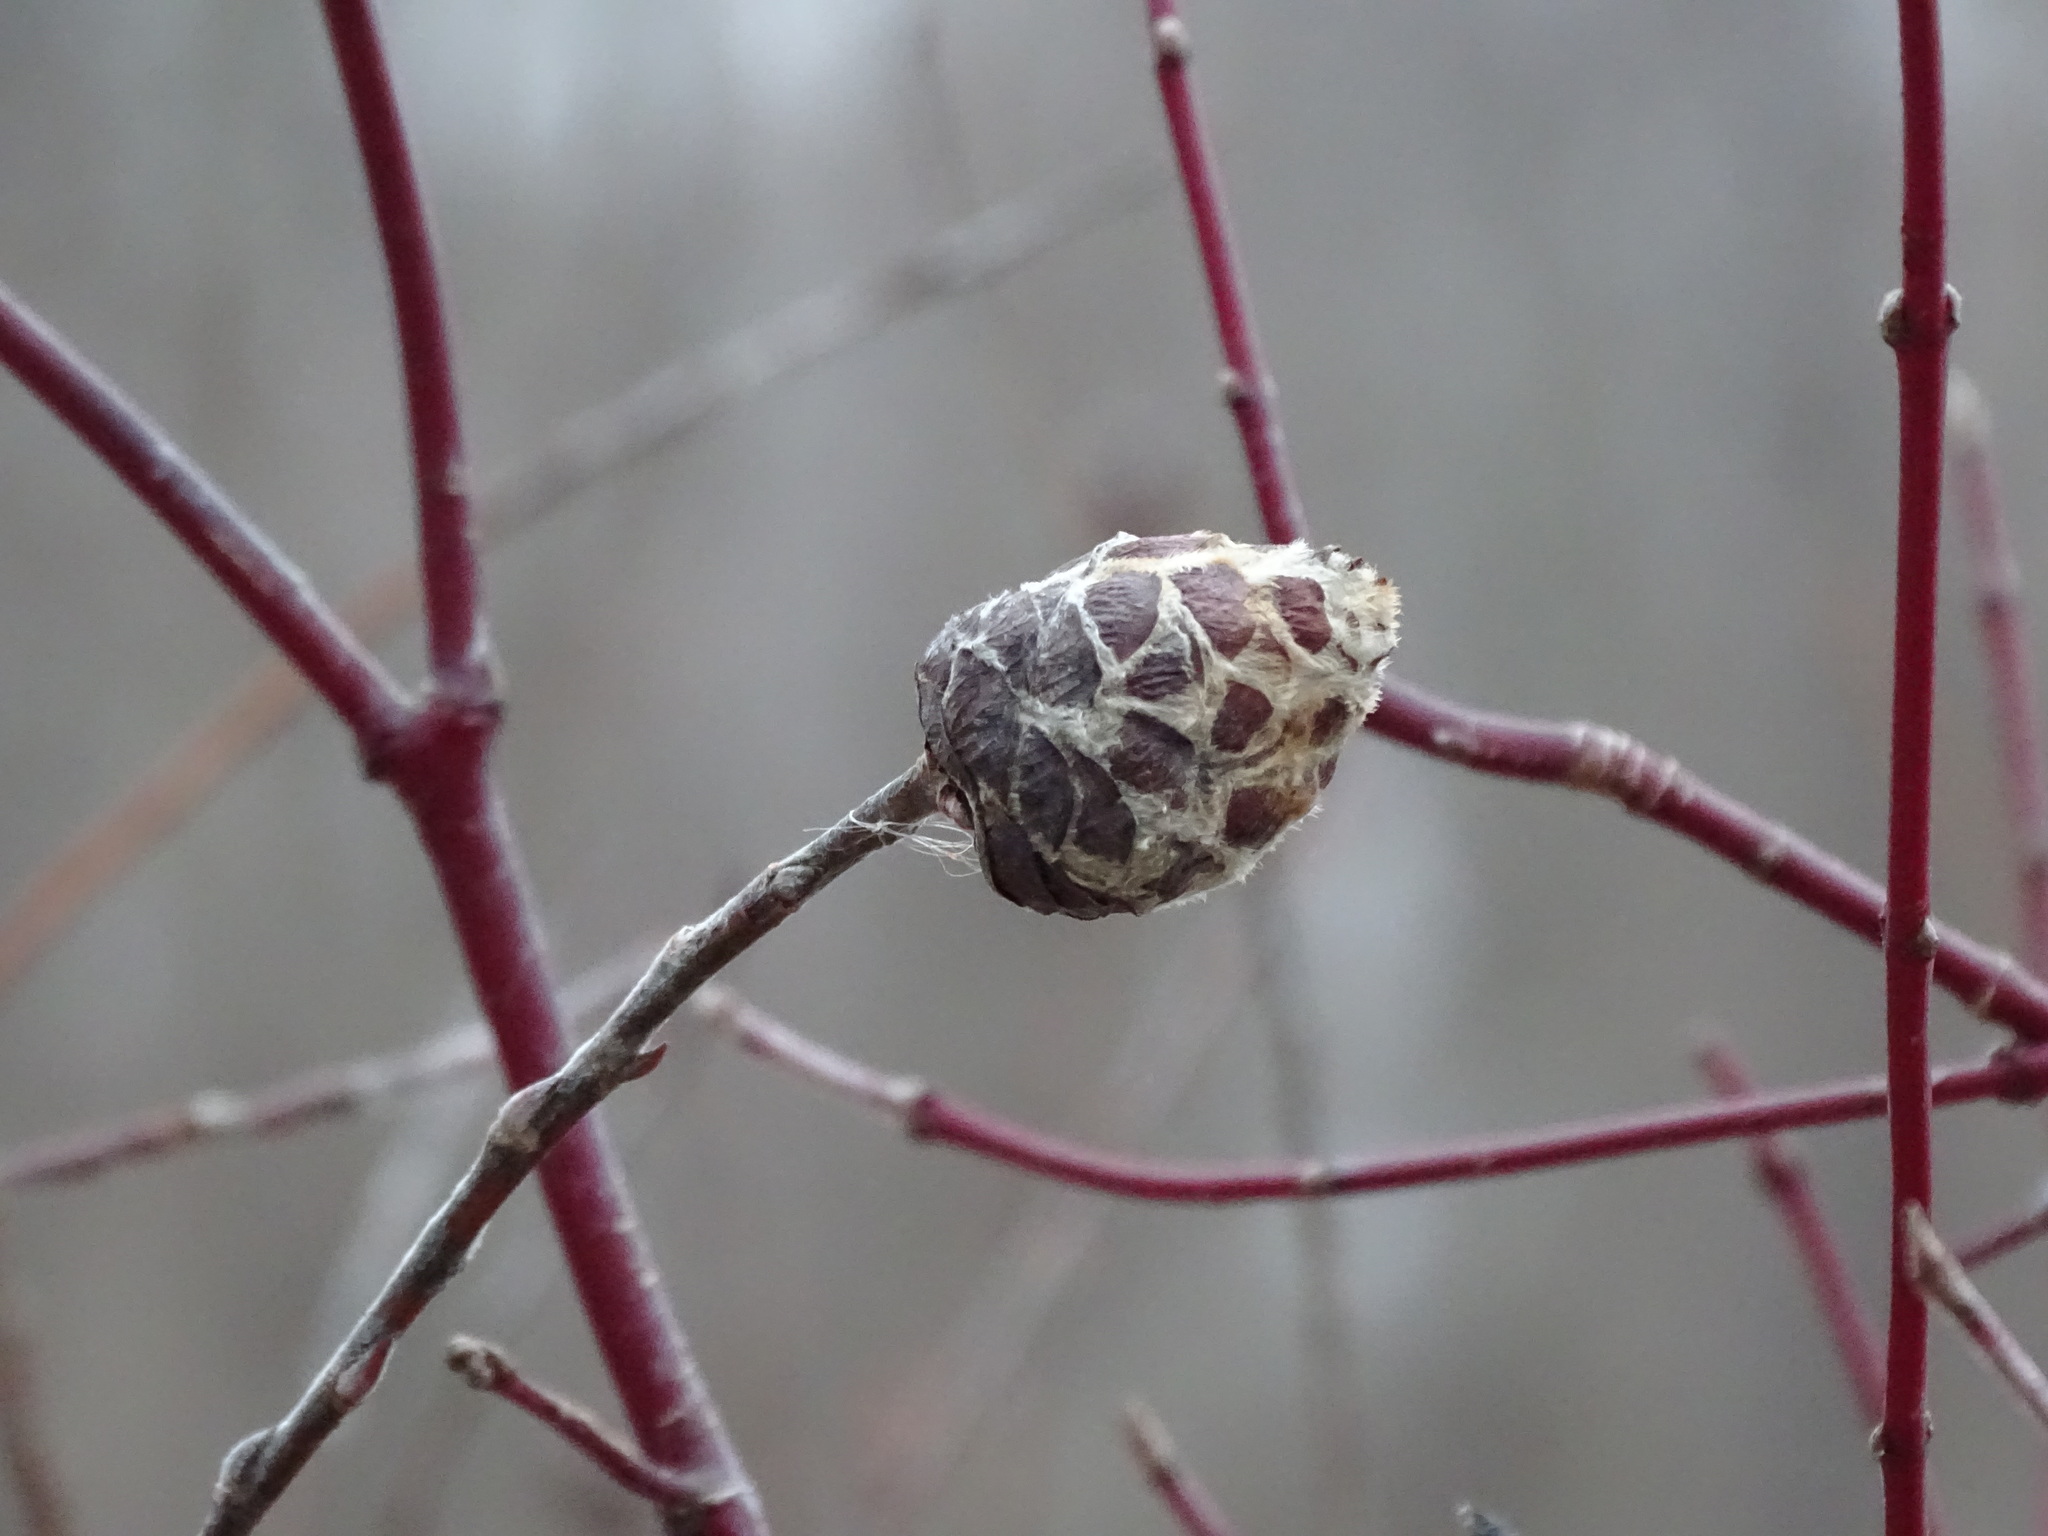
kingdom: Animalia
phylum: Arthropoda
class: Insecta
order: Diptera
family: Cecidomyiidae
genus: Rabdophaga
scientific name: Rabdophaga strobiloides
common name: Willow pinecone gall midge
